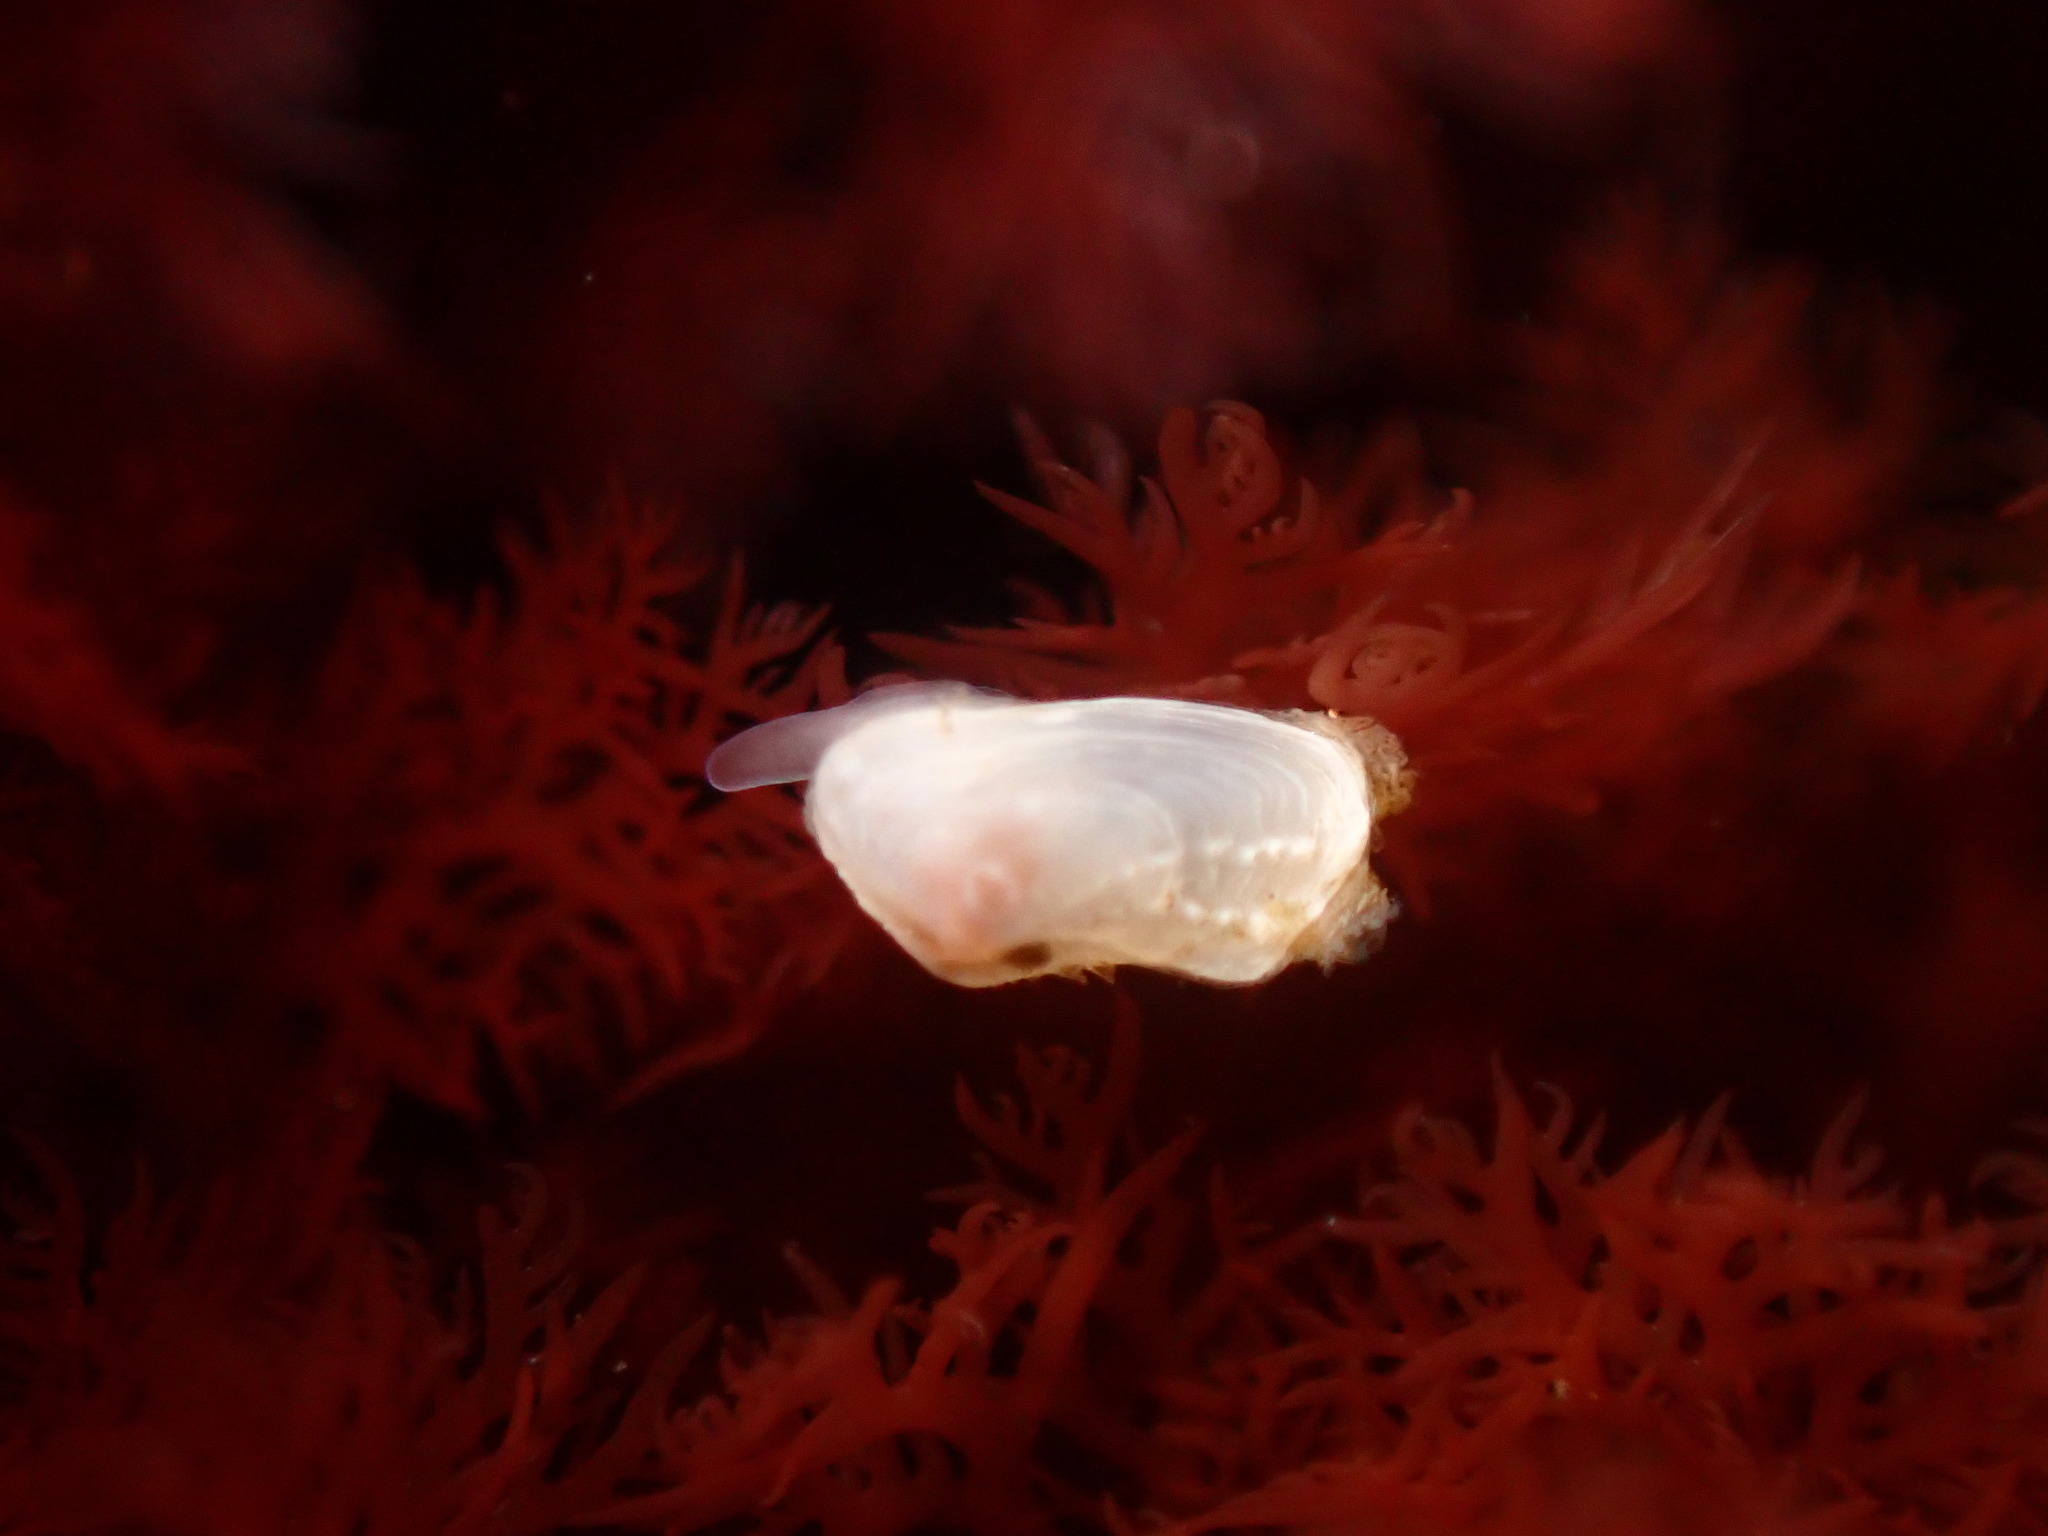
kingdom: Animalia
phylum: Mollusca
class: Bivalvia
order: Adapedonta
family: Hiatellidae
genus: Hiatella
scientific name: Hiatella arctica
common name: Arctic hiatella
